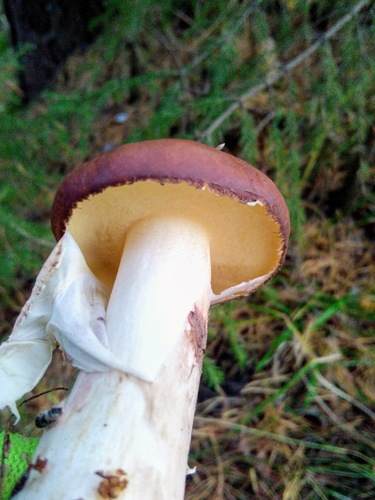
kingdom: Fungi
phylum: Basidiomycota
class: Agaricomycetes
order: Boletales
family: Suillaceae
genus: Suillus
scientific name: Suillus luteus
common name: Slippery jack
